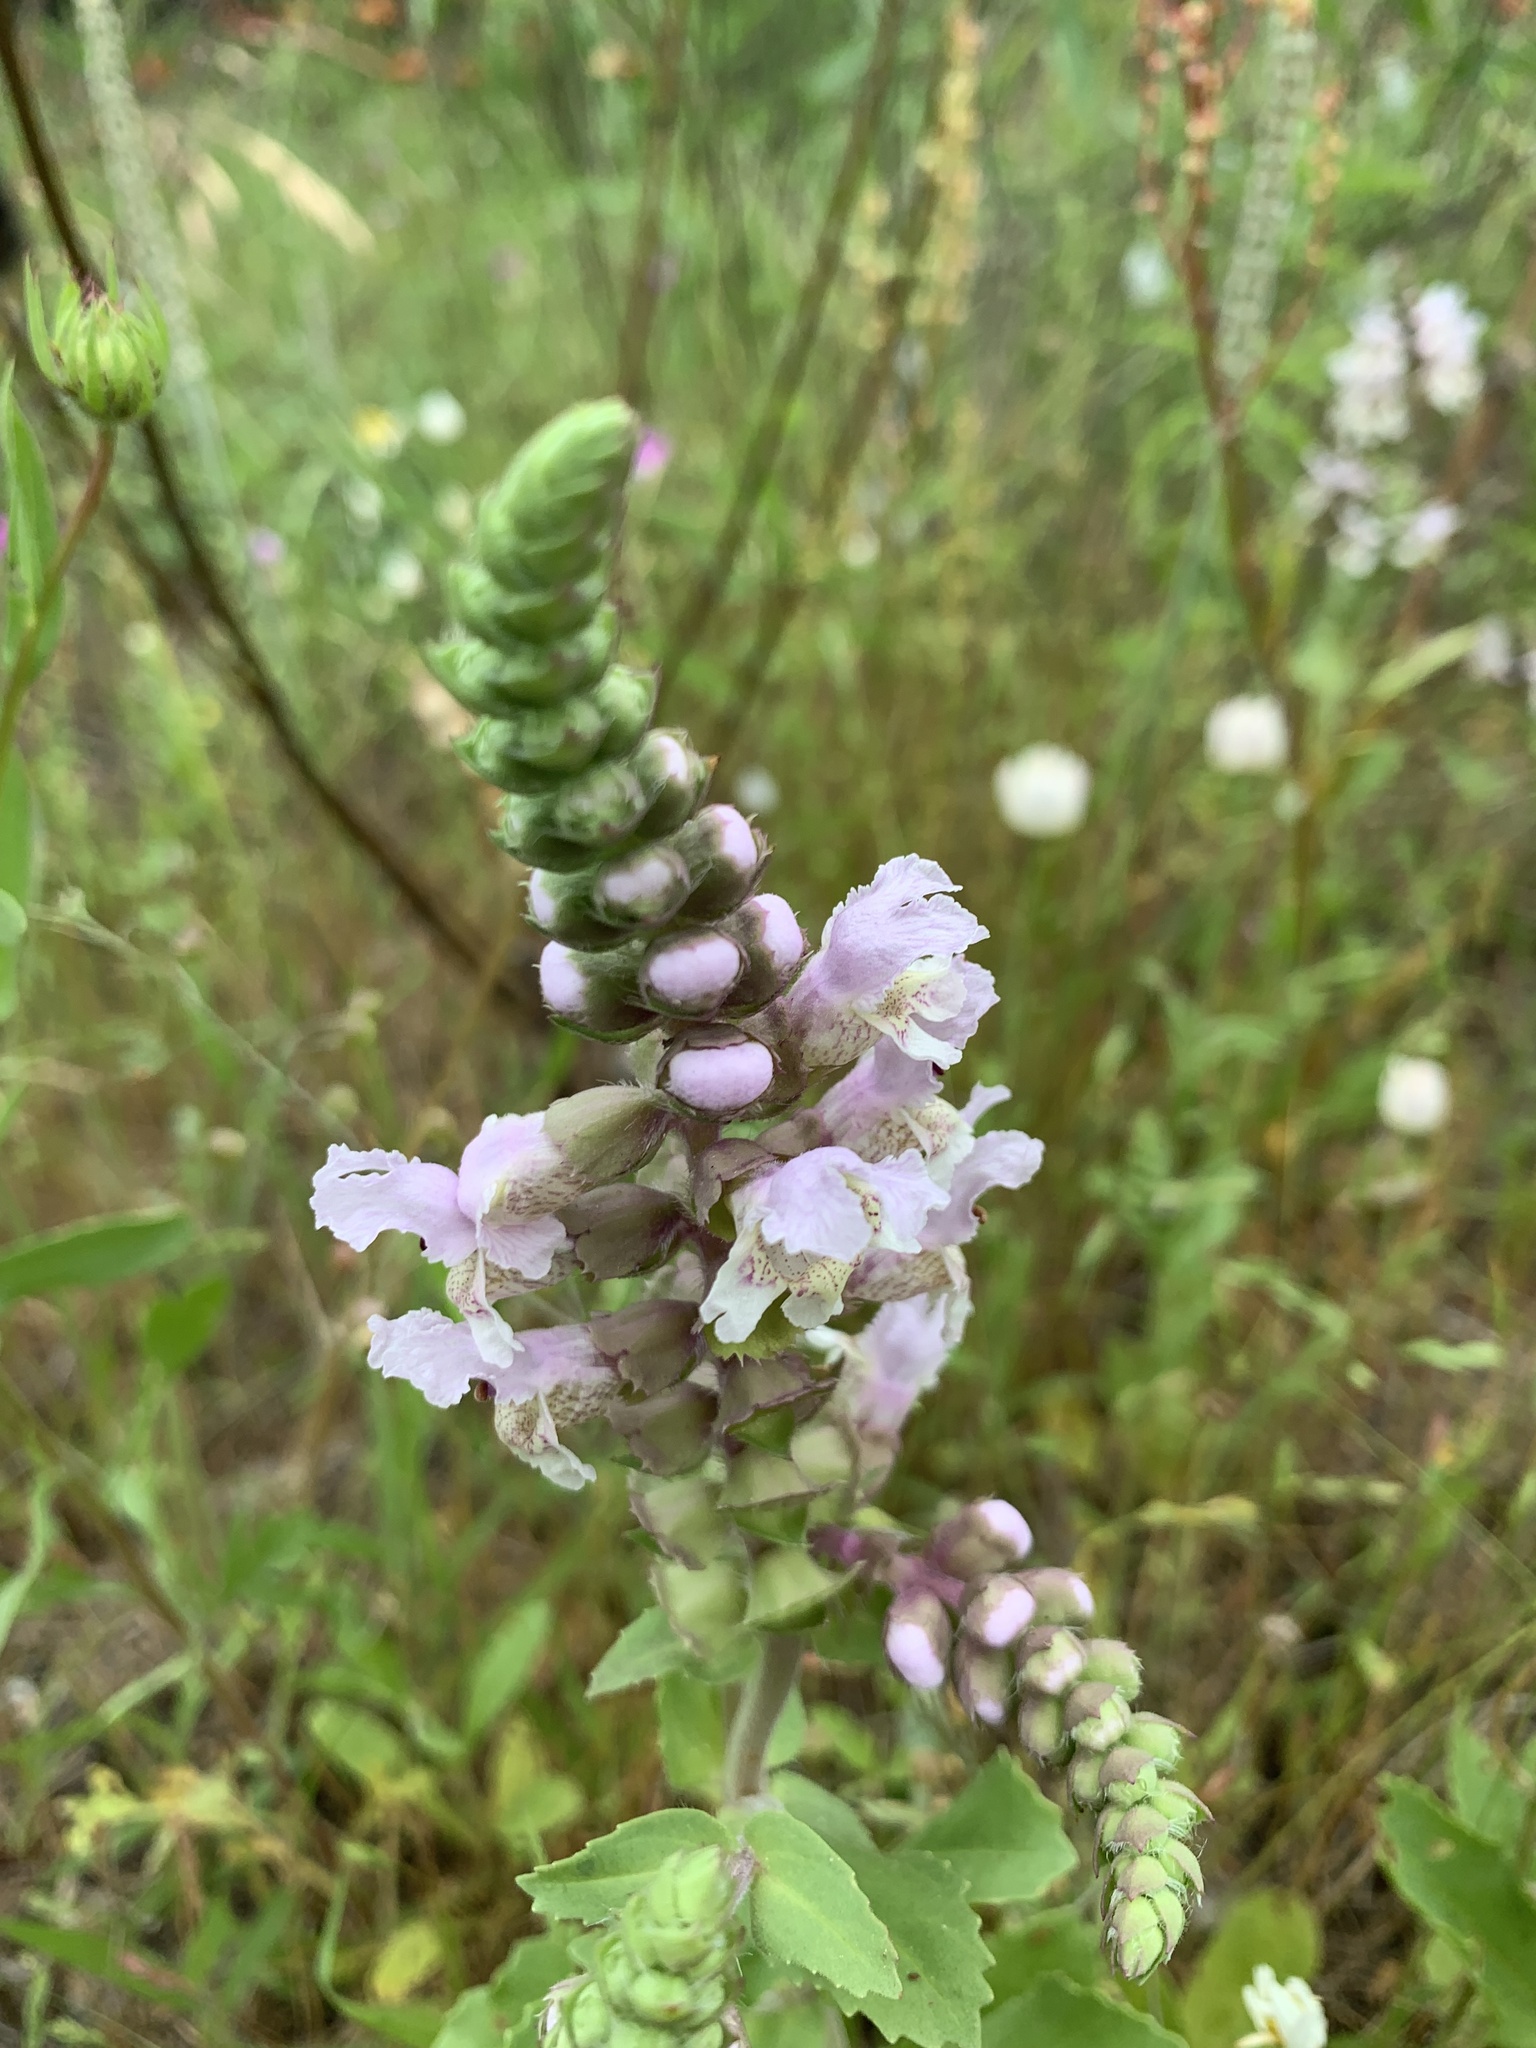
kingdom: Plantae
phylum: Tracheophyta
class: Magnoliopsida
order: Lamiales
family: Lamiaceae
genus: Brazoria
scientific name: Brazoria truncata
